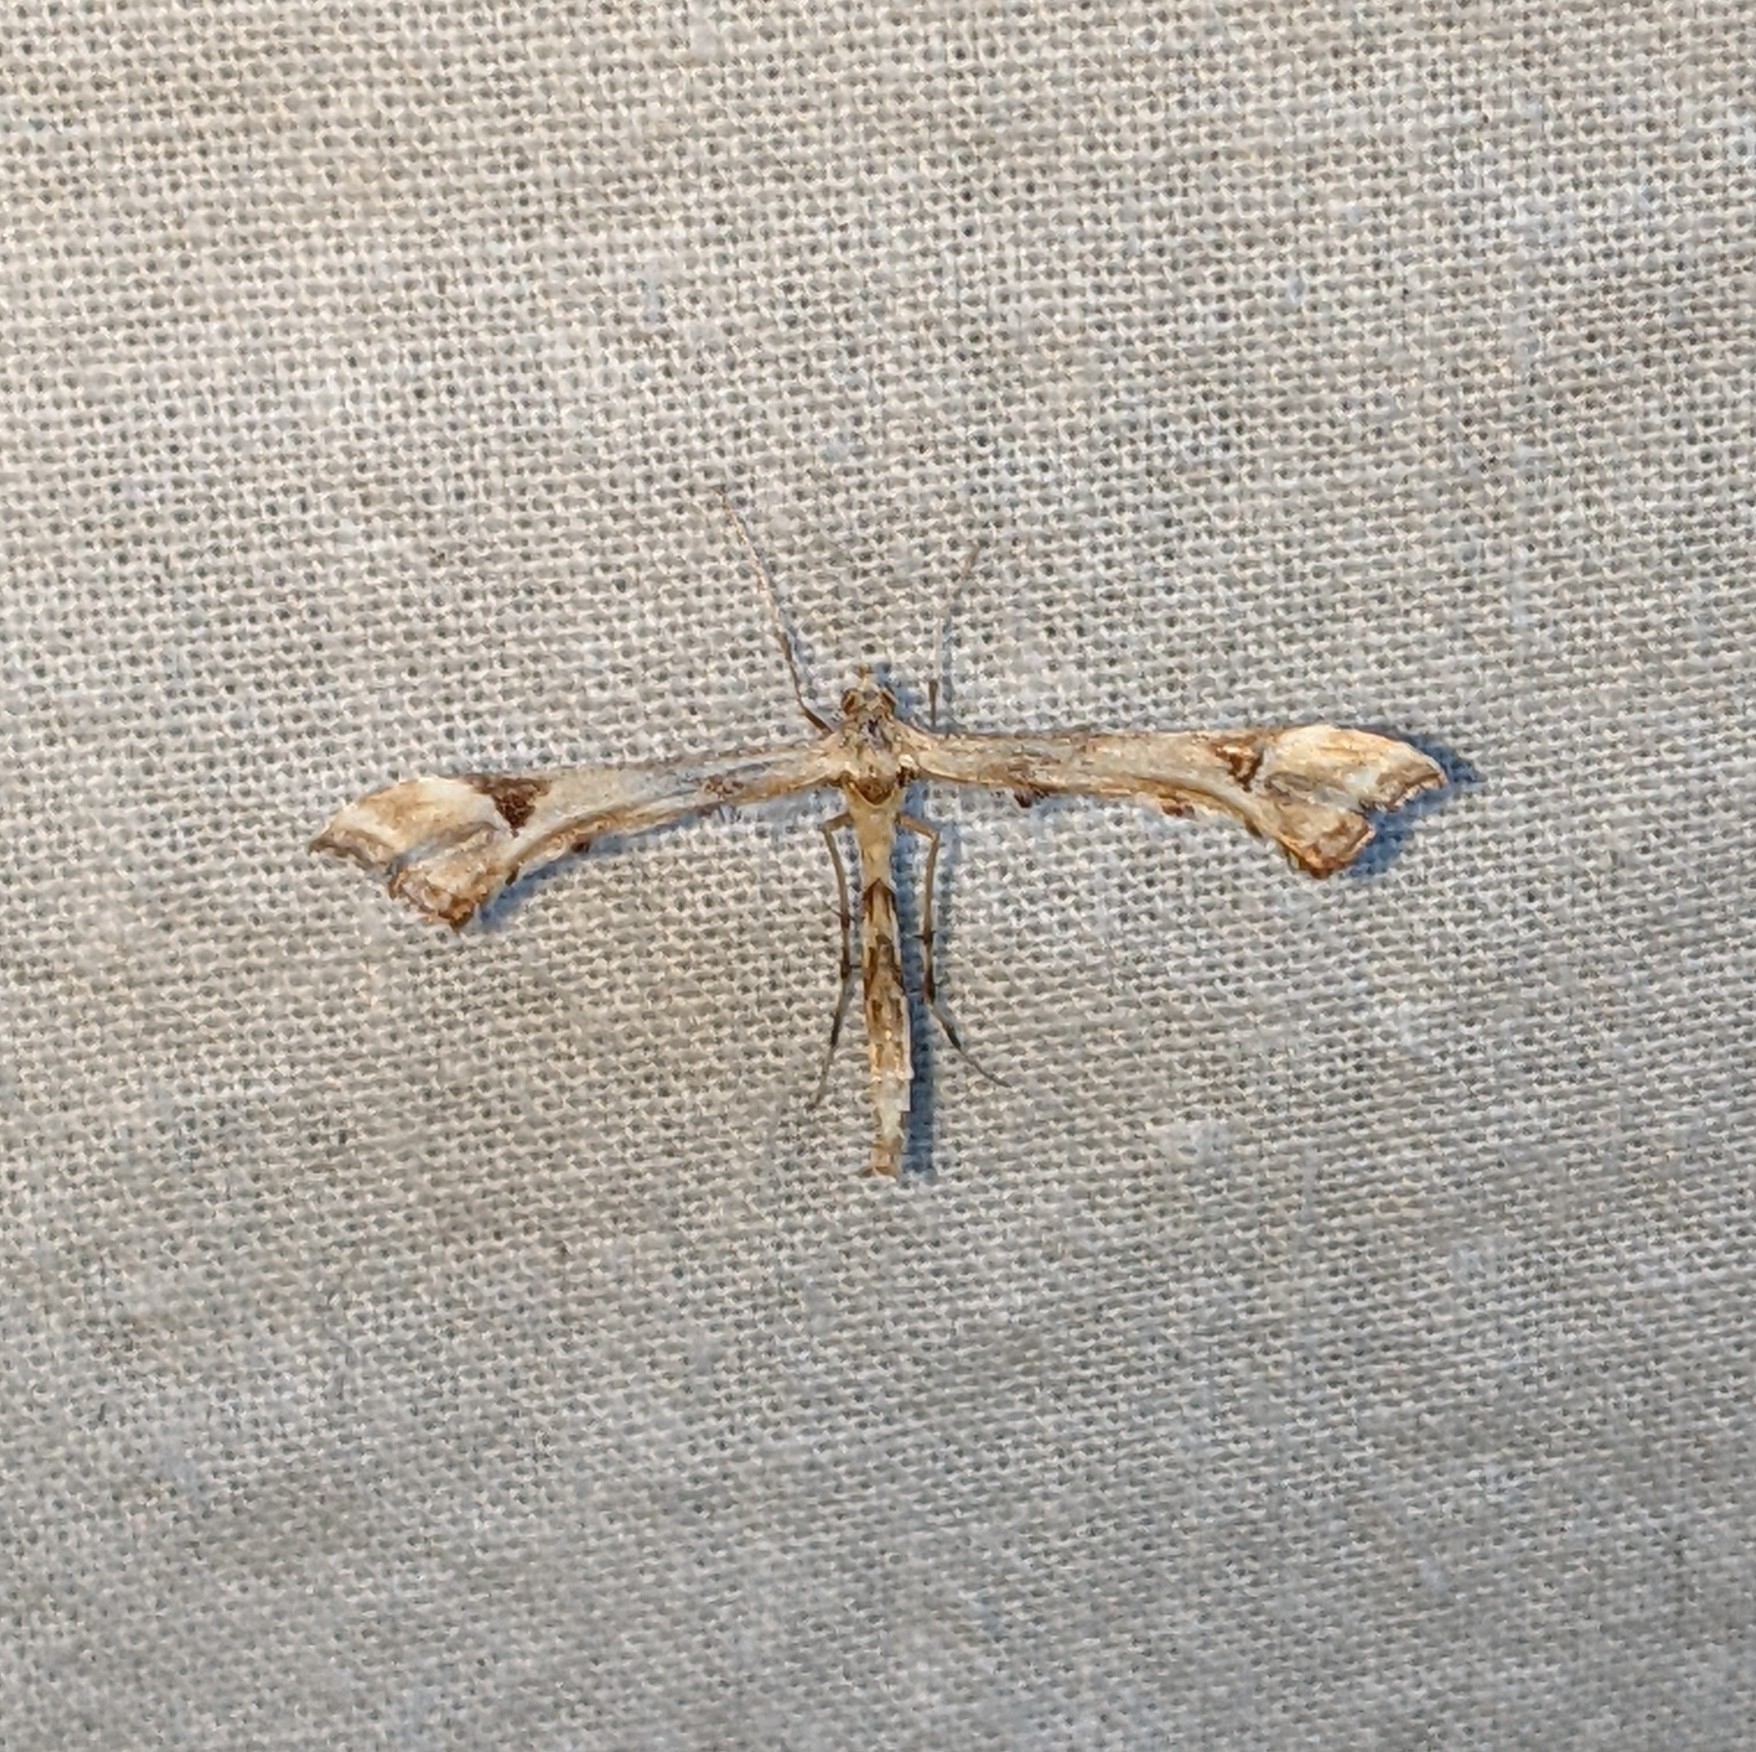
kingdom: Animalia
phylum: Arthropoda
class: Insecta
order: Lepidoptera
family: Pterophoridae
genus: Platyptilia
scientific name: Platyptilia carduidactylus
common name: Artichoke plume moth
